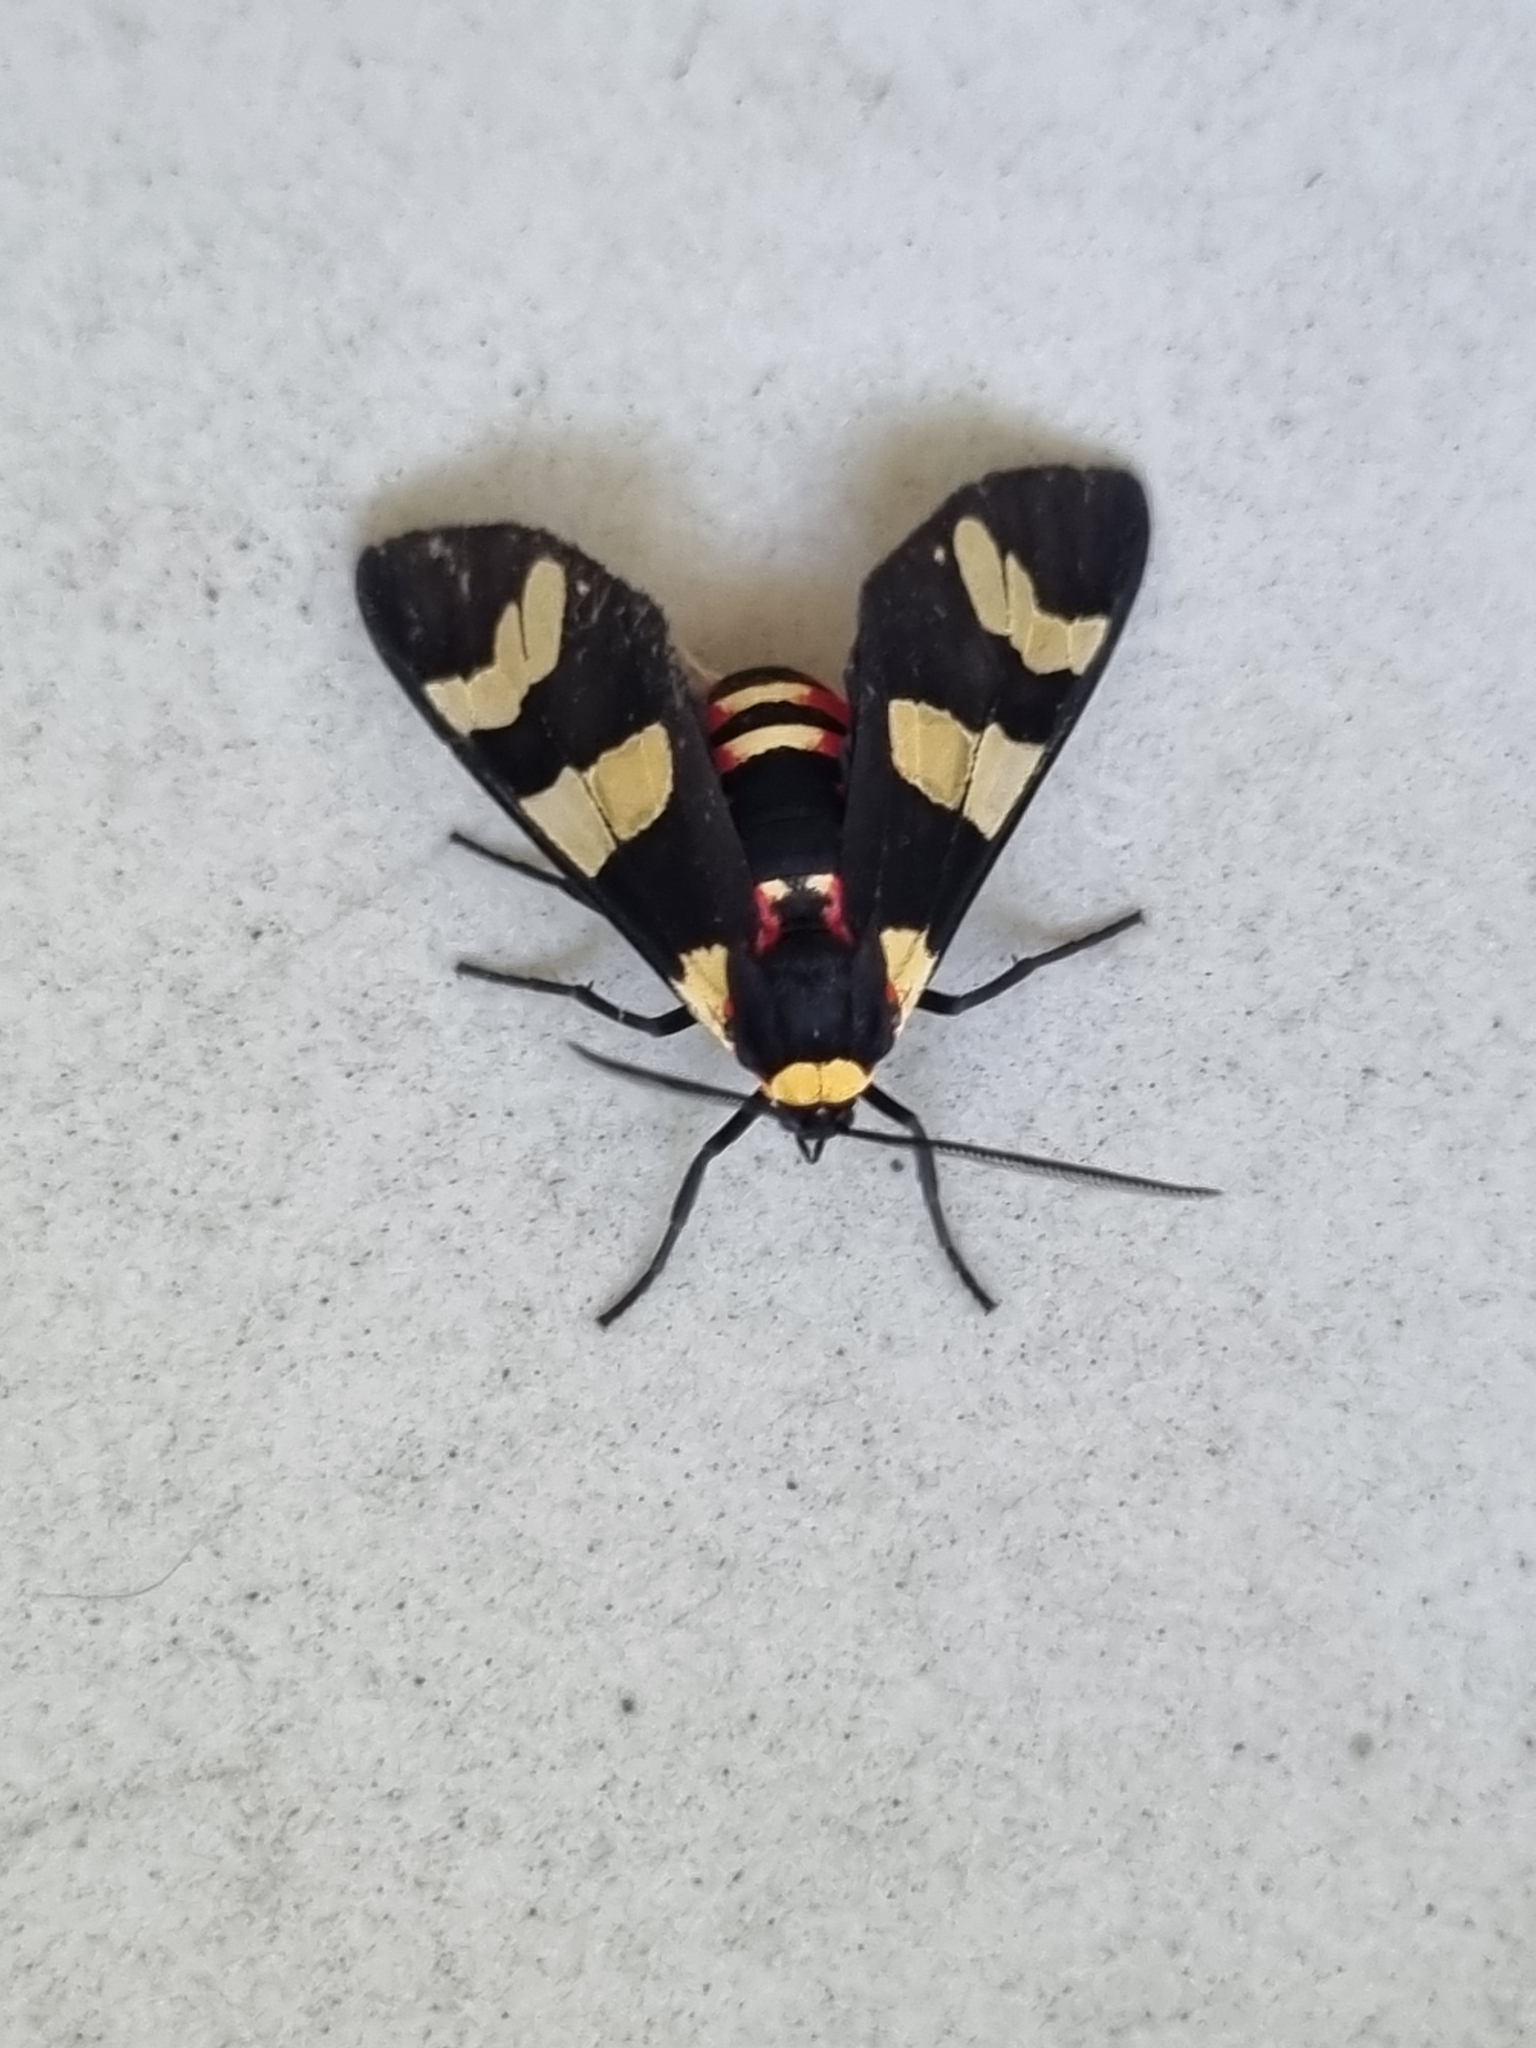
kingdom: Animalia
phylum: Arthropoda
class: Insecta
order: Lepidoptera
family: Erebidae
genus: Eurata
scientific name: Eurata patagiata
